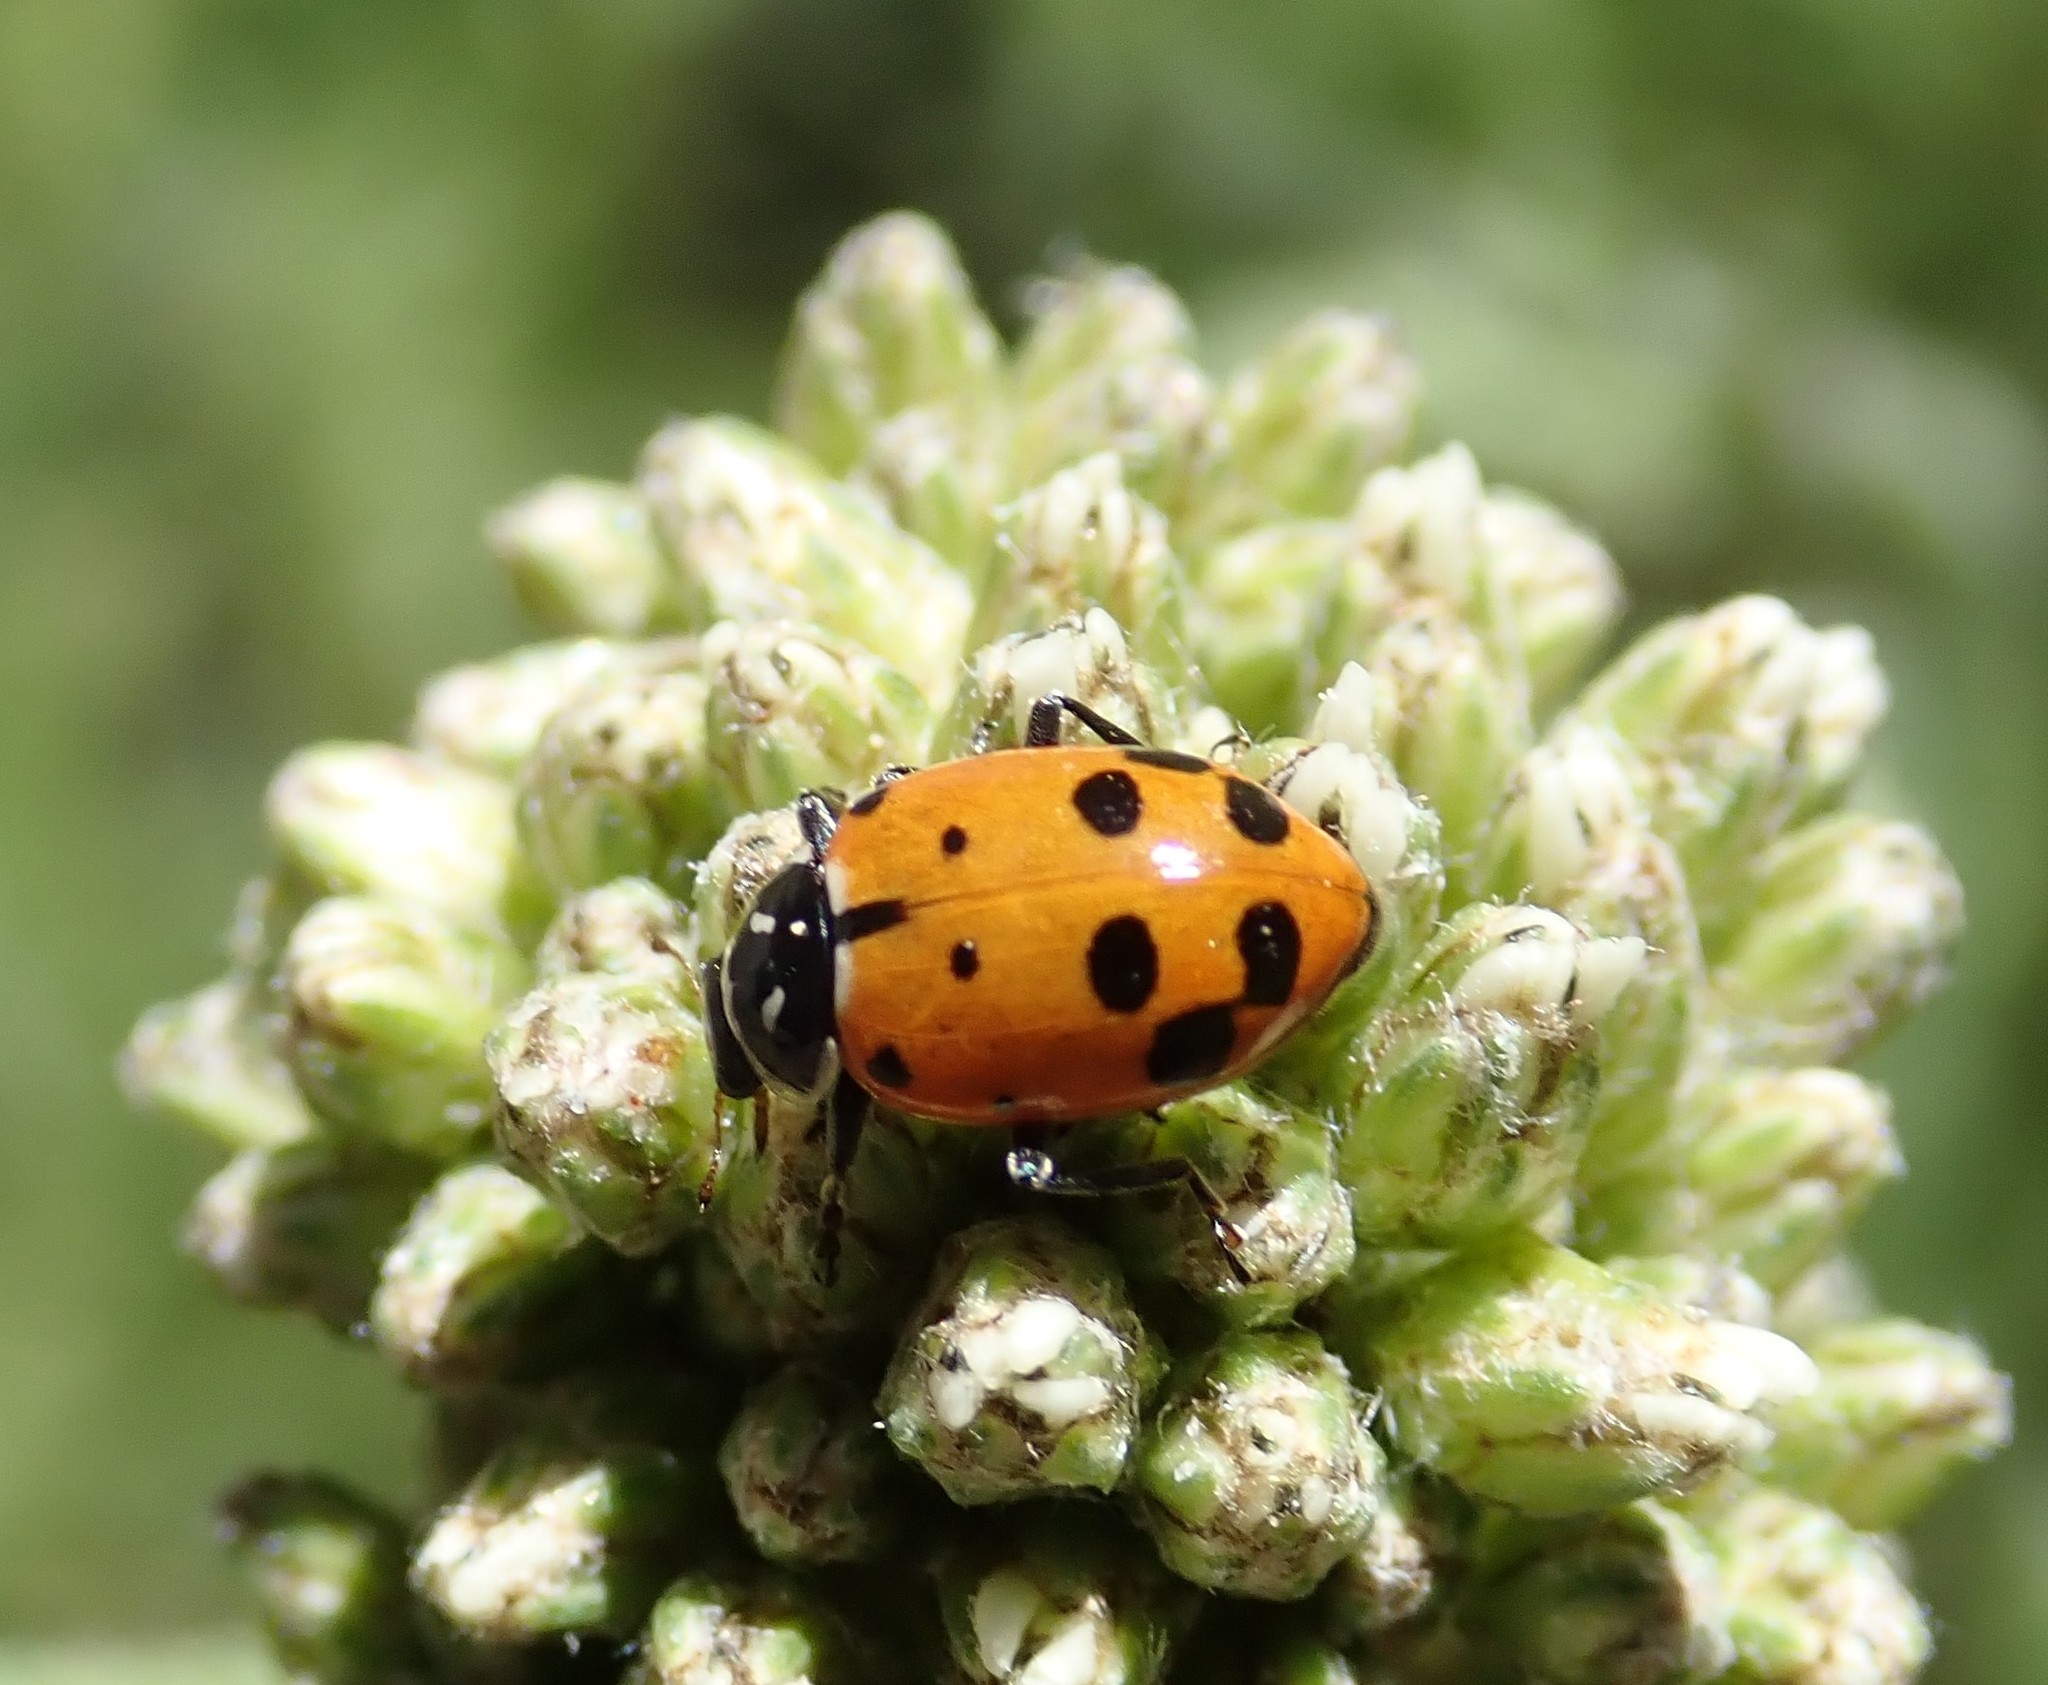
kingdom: Animalia
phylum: Arthropoda
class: Insecta
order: Coleoptera
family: Coccinellidae
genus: Hippodamia
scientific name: Hippodamia convergens
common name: Convergent lady beetle
